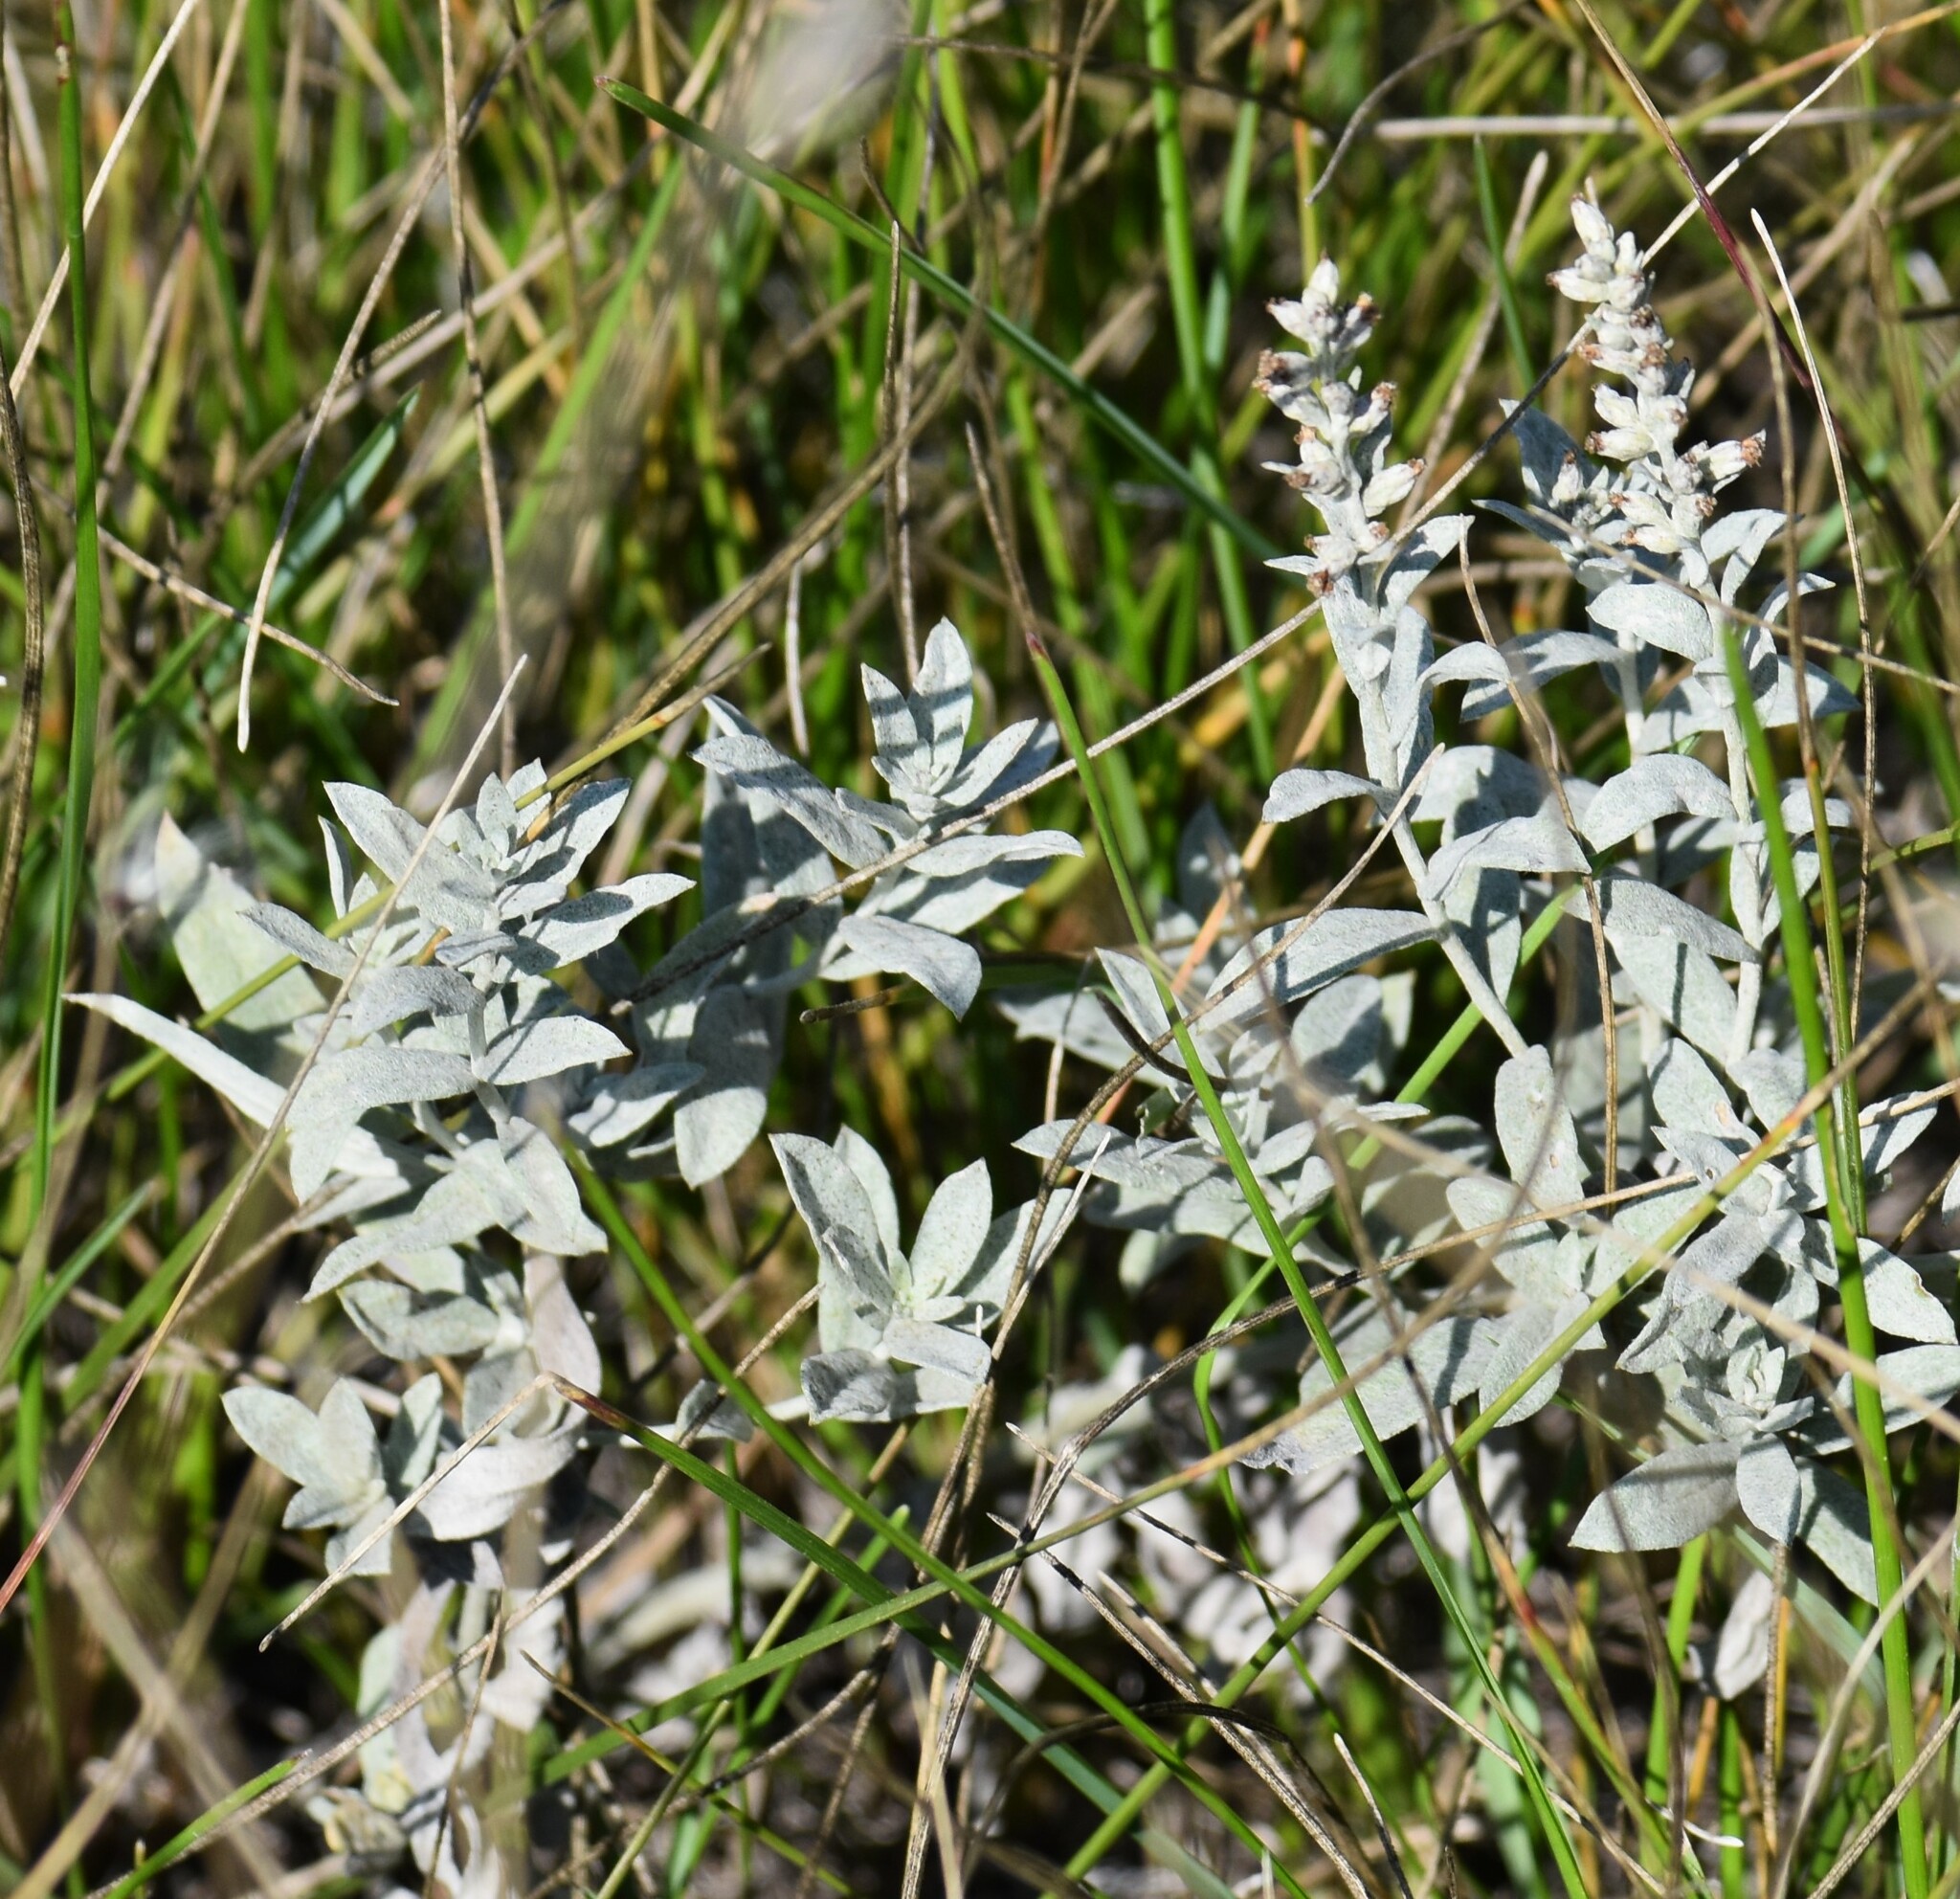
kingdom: Plantae
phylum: Tracheophyta
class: Magnoliopsida
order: Asterales
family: Asteraceae
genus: Artemisia
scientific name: Artemisia ludoviciana
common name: Western mugwort
